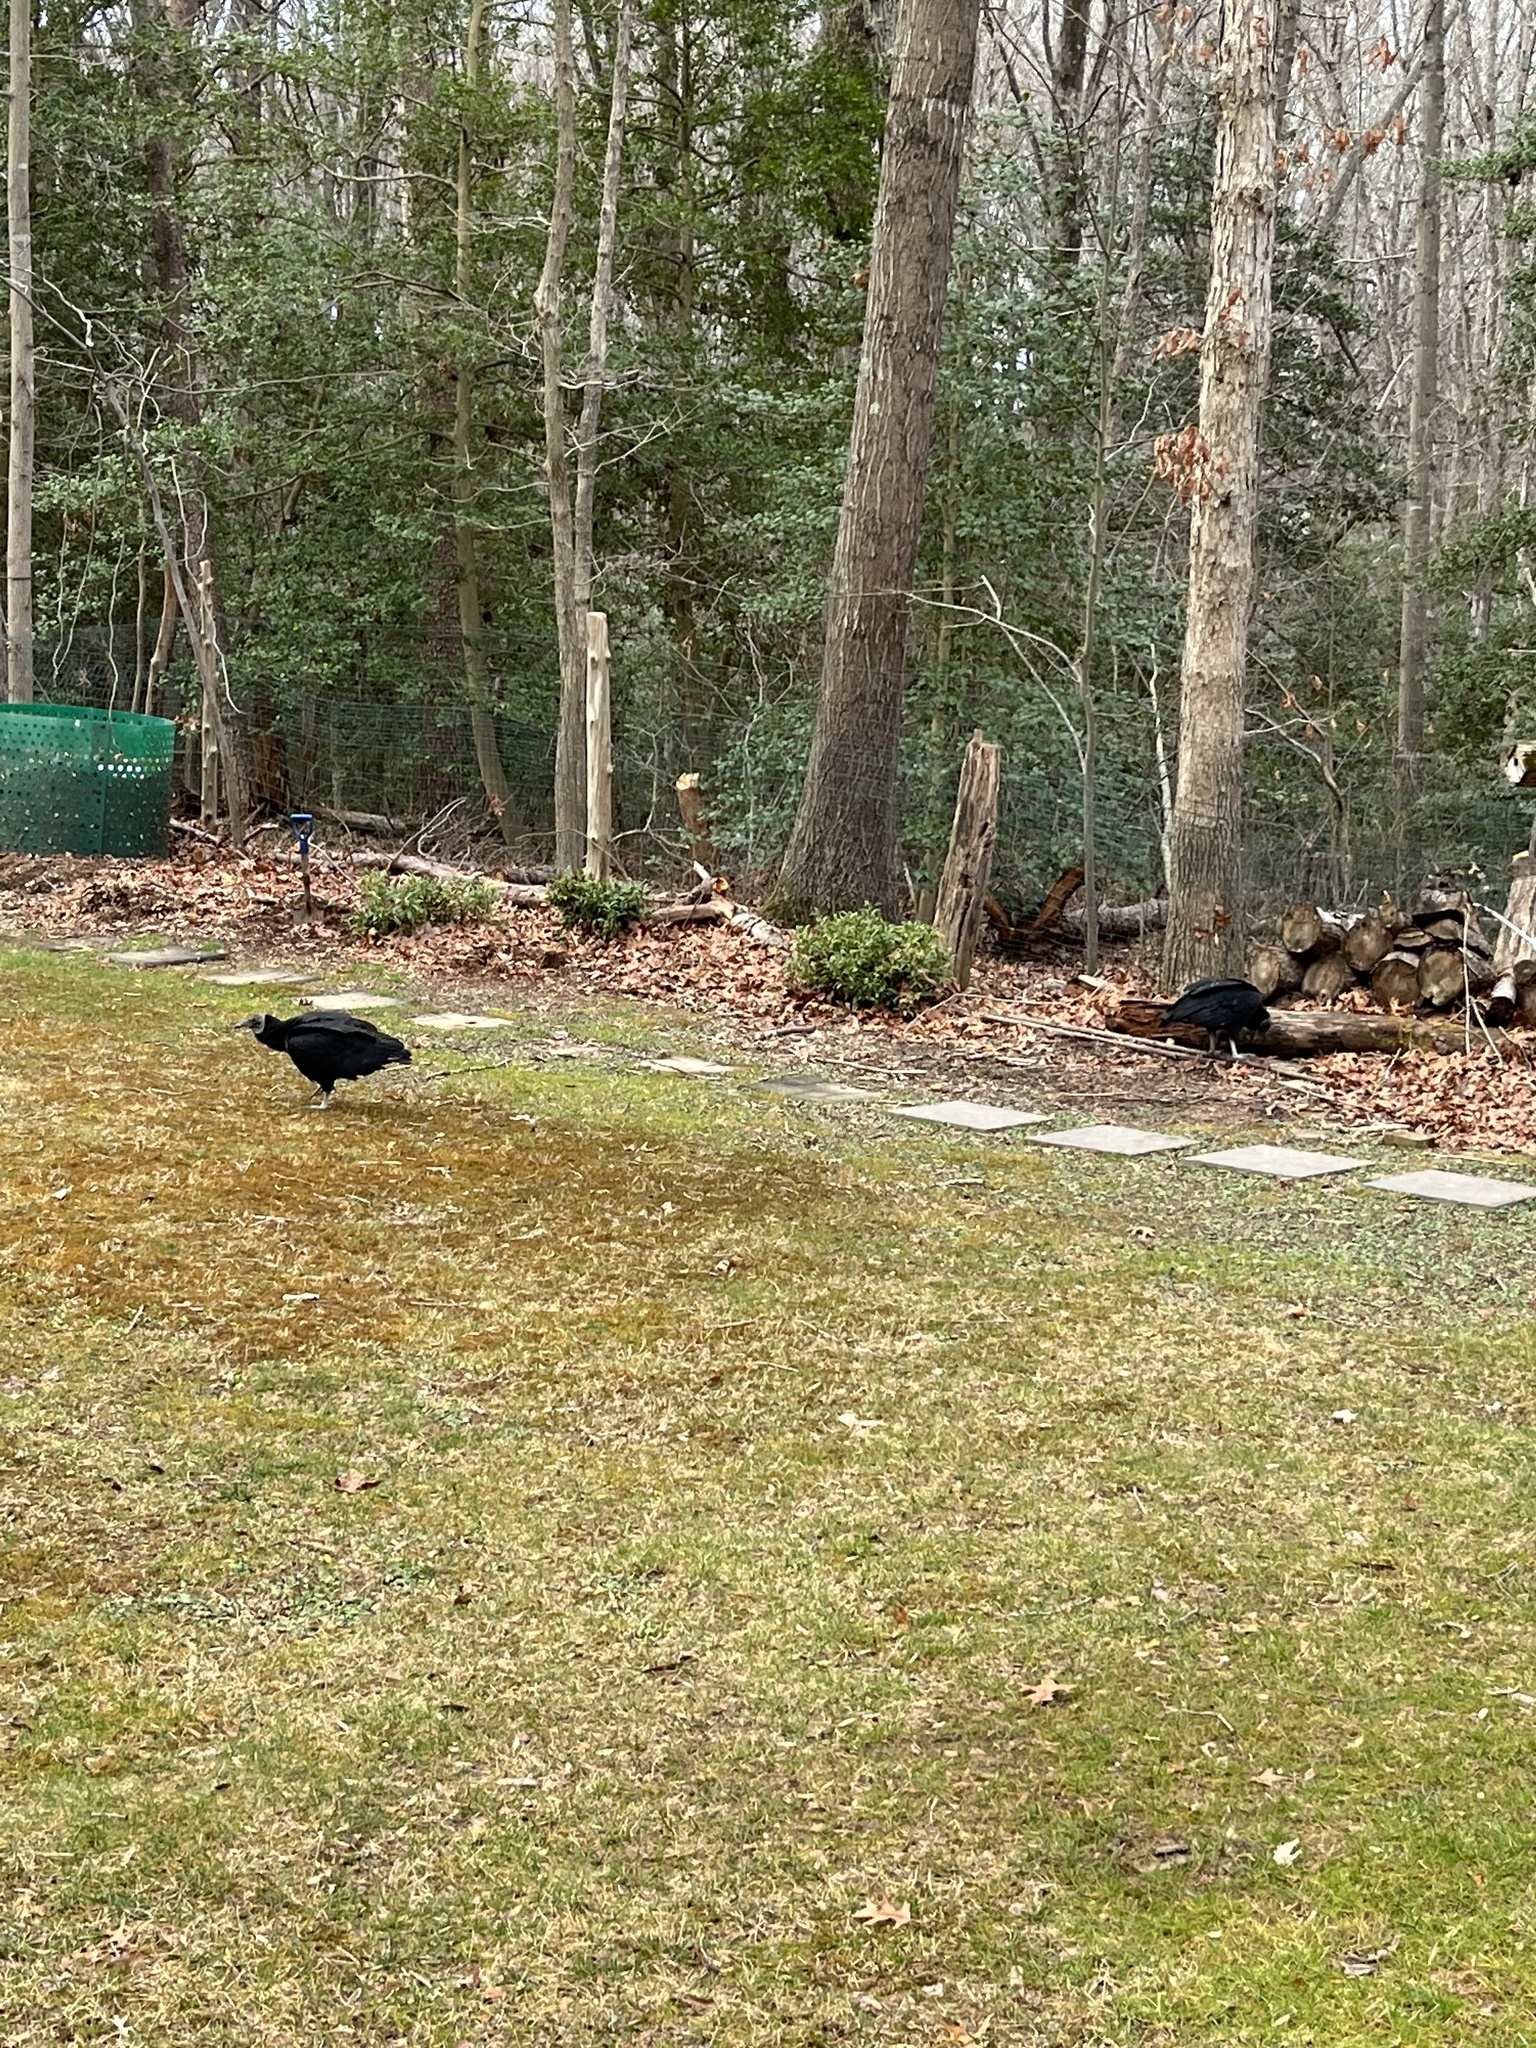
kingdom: Animalia
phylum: Chordata
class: Aves
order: Accipitriformes
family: Cathartidae
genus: Coragyps
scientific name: Coragyps atratus
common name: Black vulture
